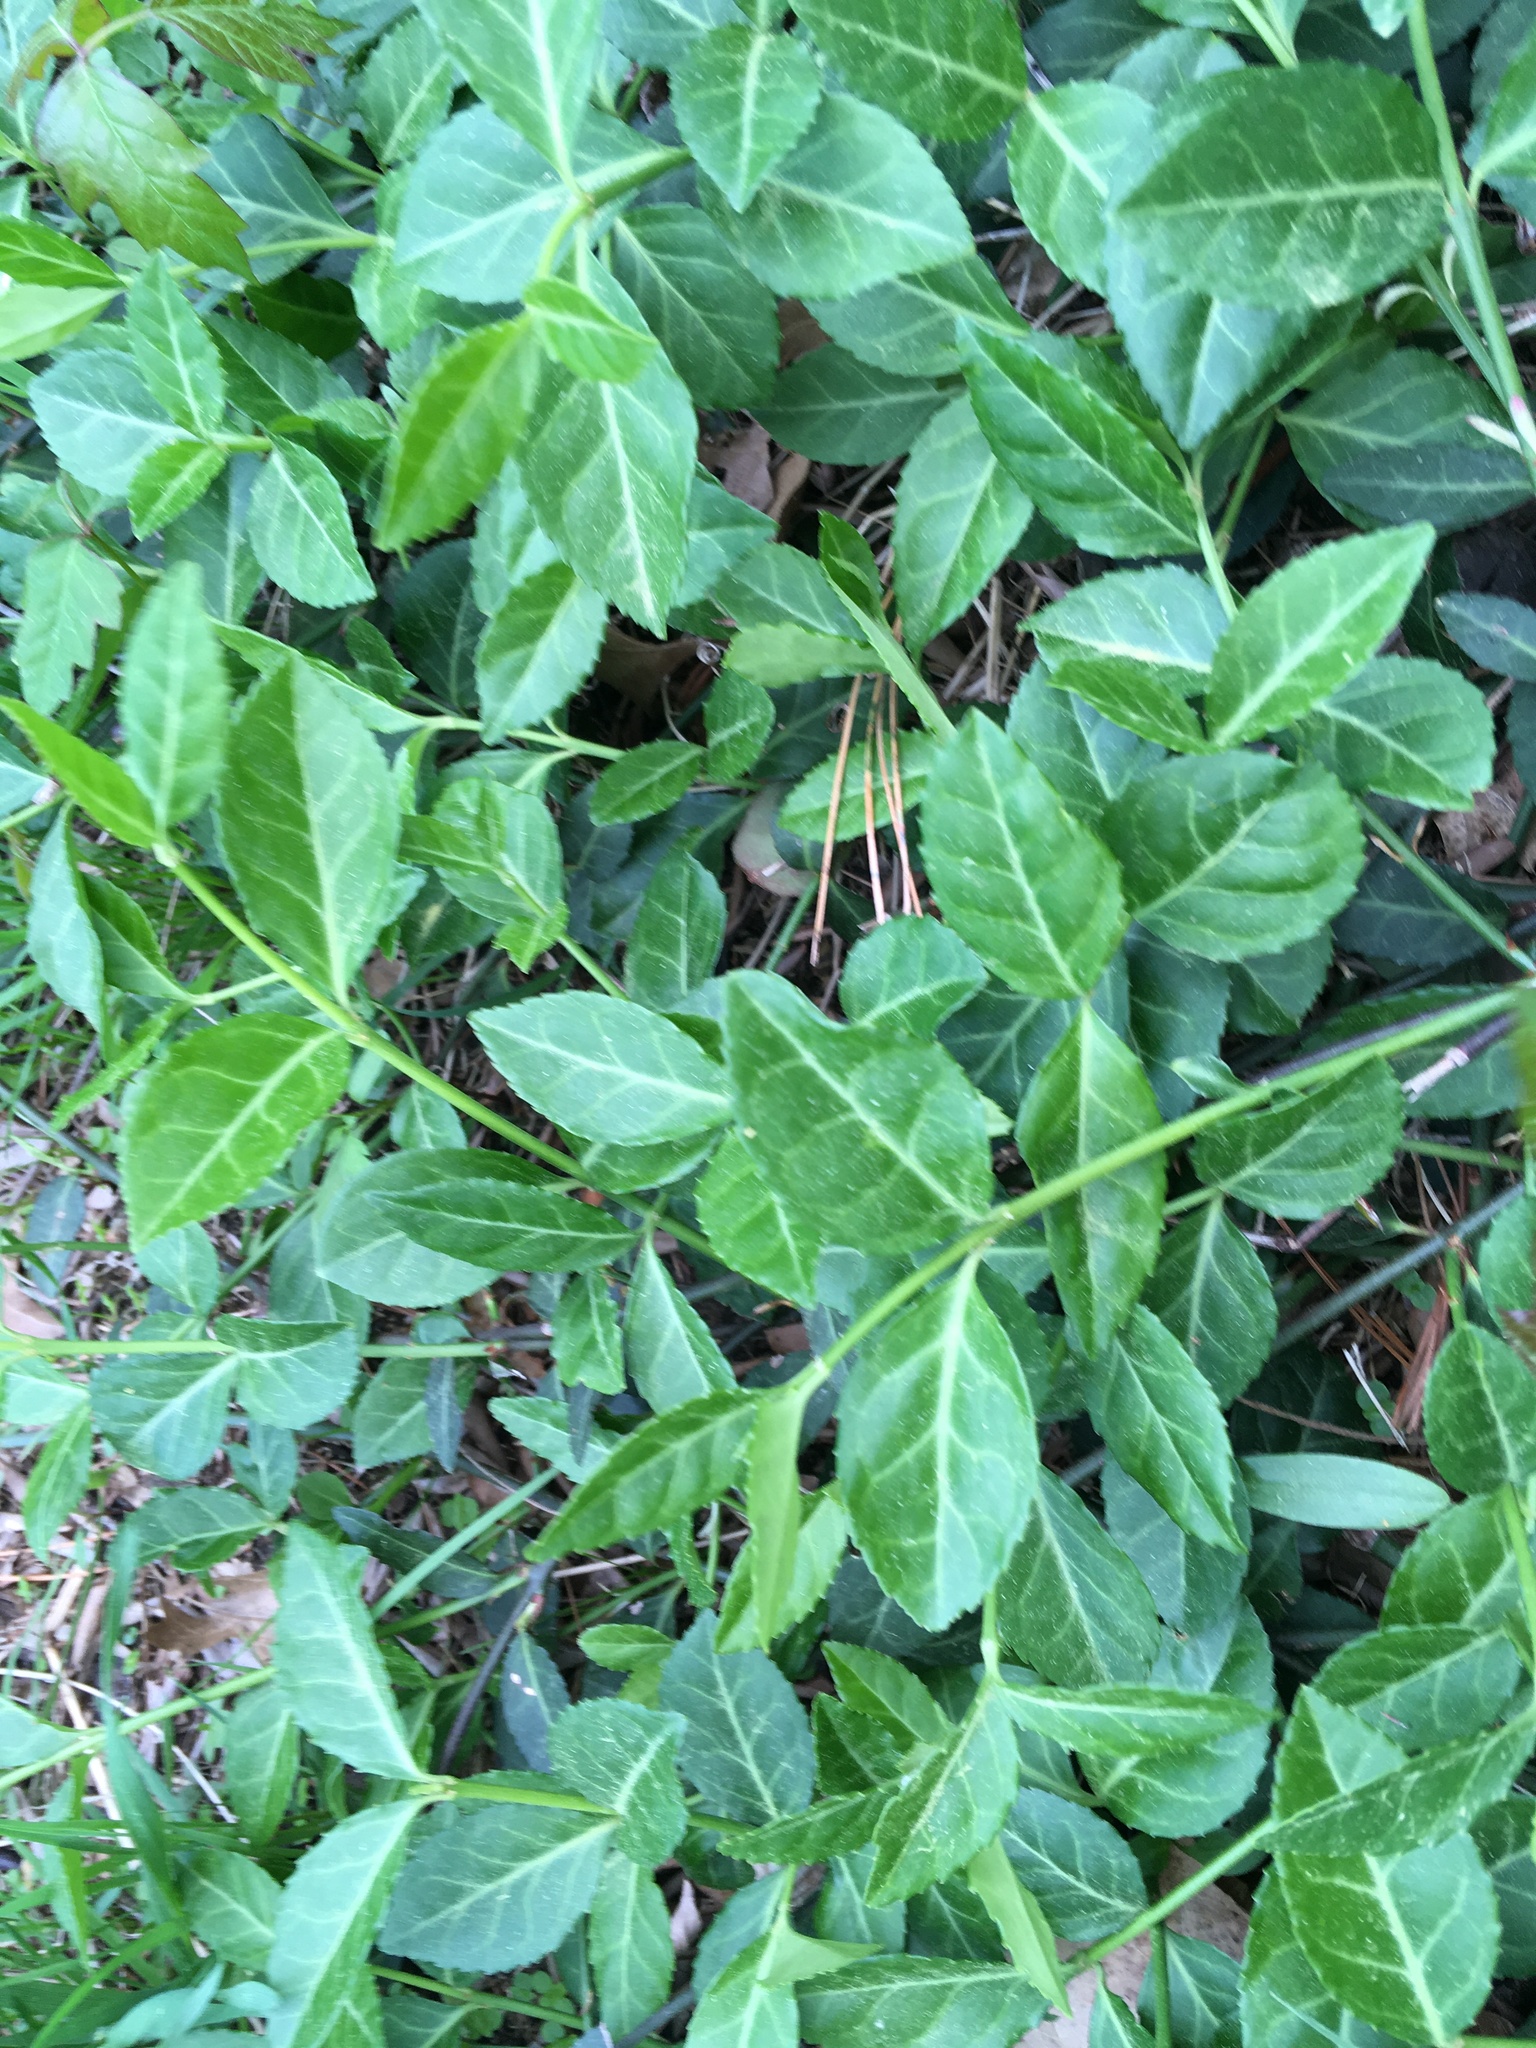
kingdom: Plantae
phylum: Tracheophyta
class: Magnoliopsida
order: Celastrales
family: Celastraceae
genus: Euonymus
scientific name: Euonymus fortunei
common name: Climbing euonymus
